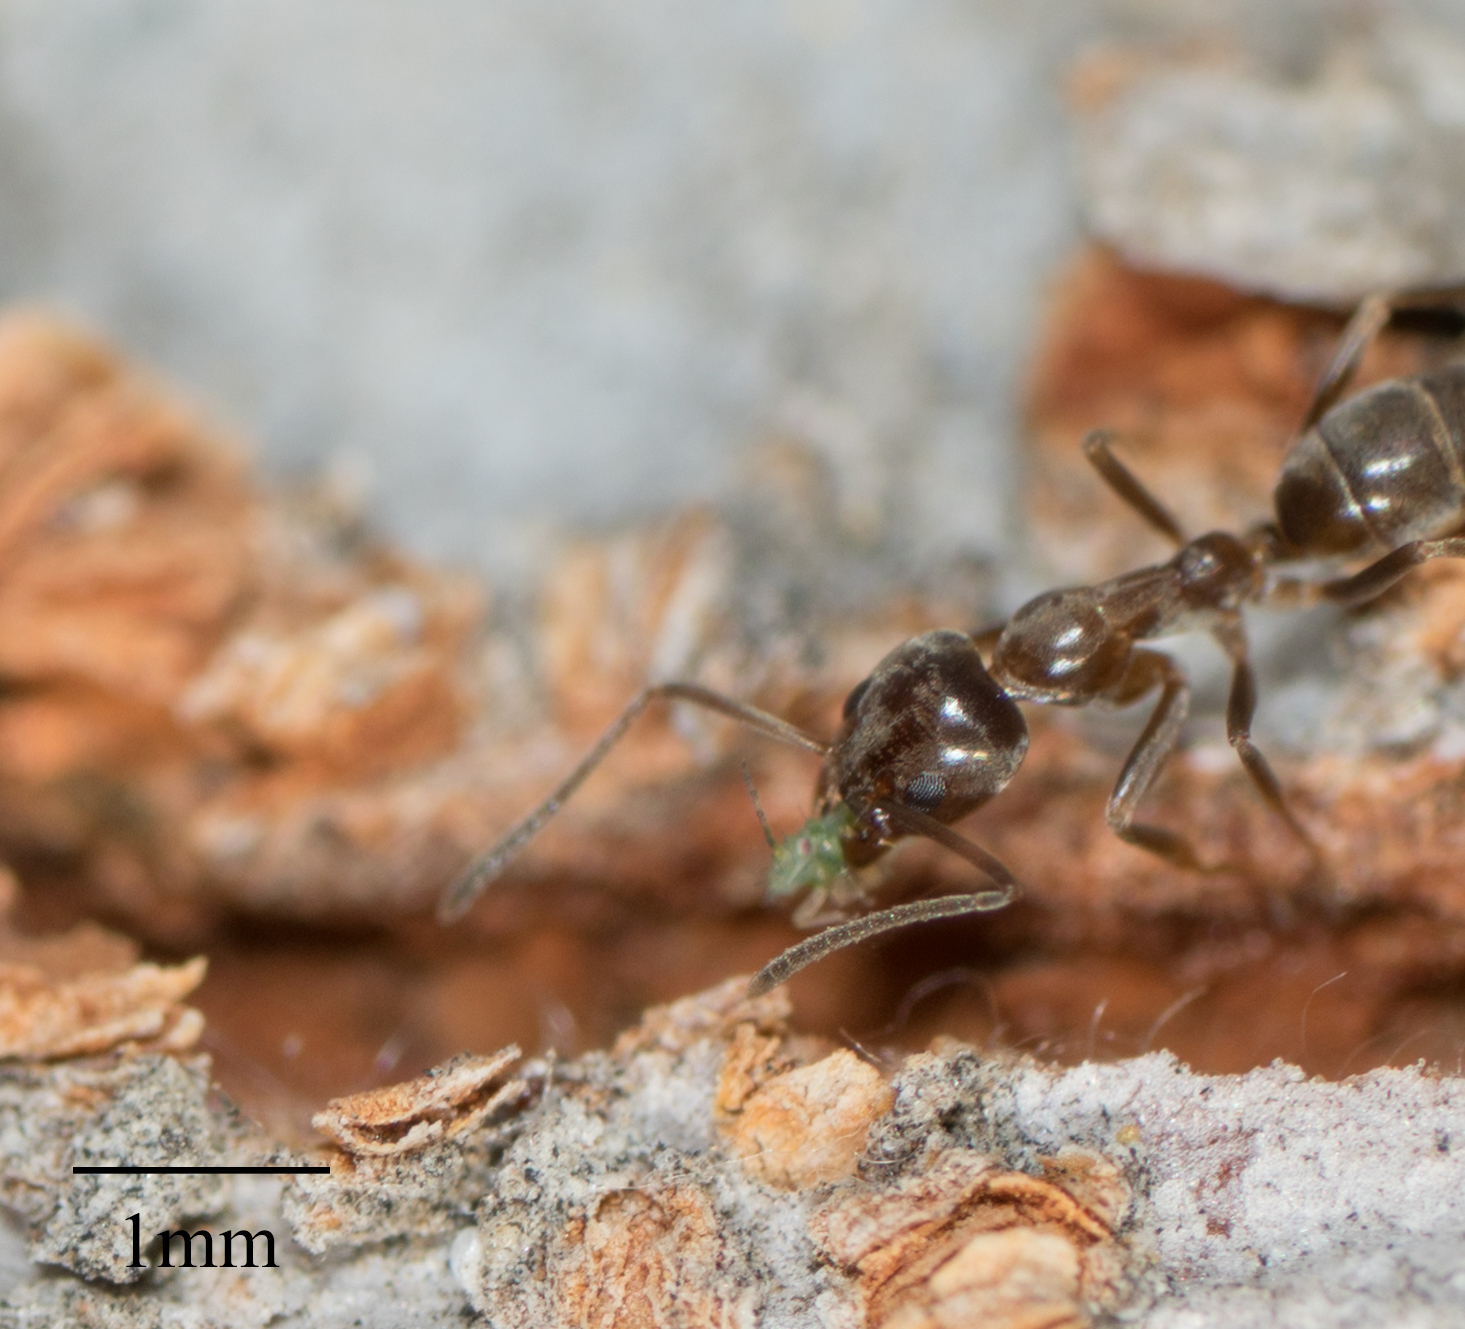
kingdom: Animalia
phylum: Arthropoda
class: Insecta
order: Hymenoptera
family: Formicidae
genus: Linepithema
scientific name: Linepithema humile
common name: Argentine ant
